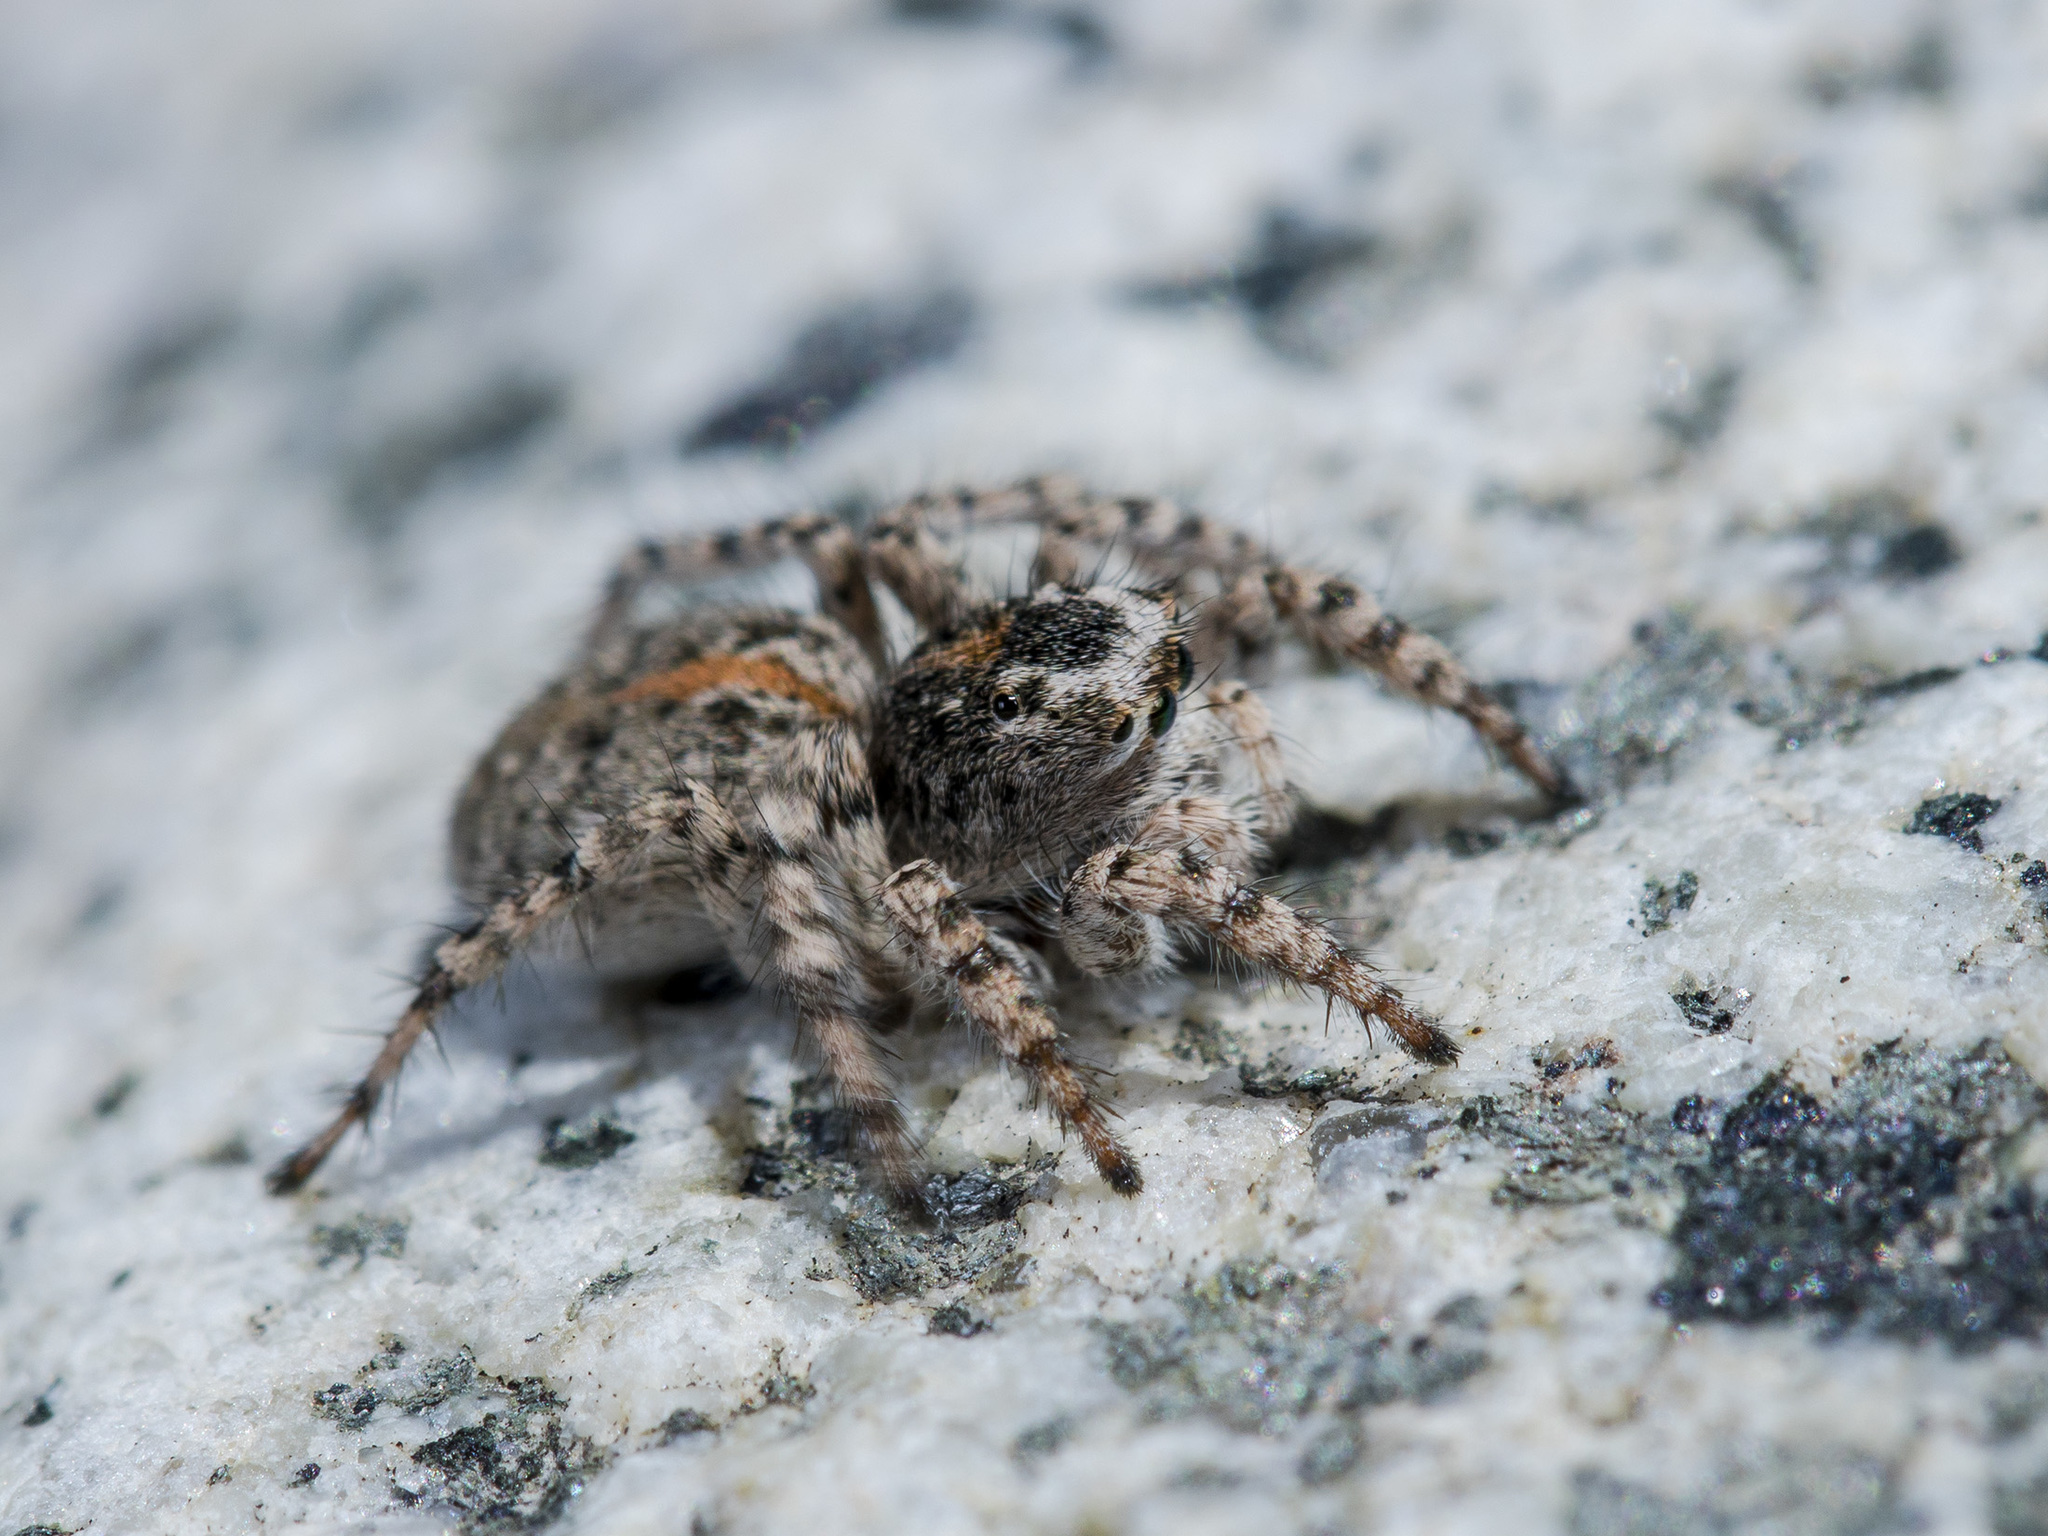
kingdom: Animalia
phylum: Arthropoda
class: Arachnida
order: Araneae
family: Salticidae
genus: Aelurillus
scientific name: Aelurillus dubatolovi
